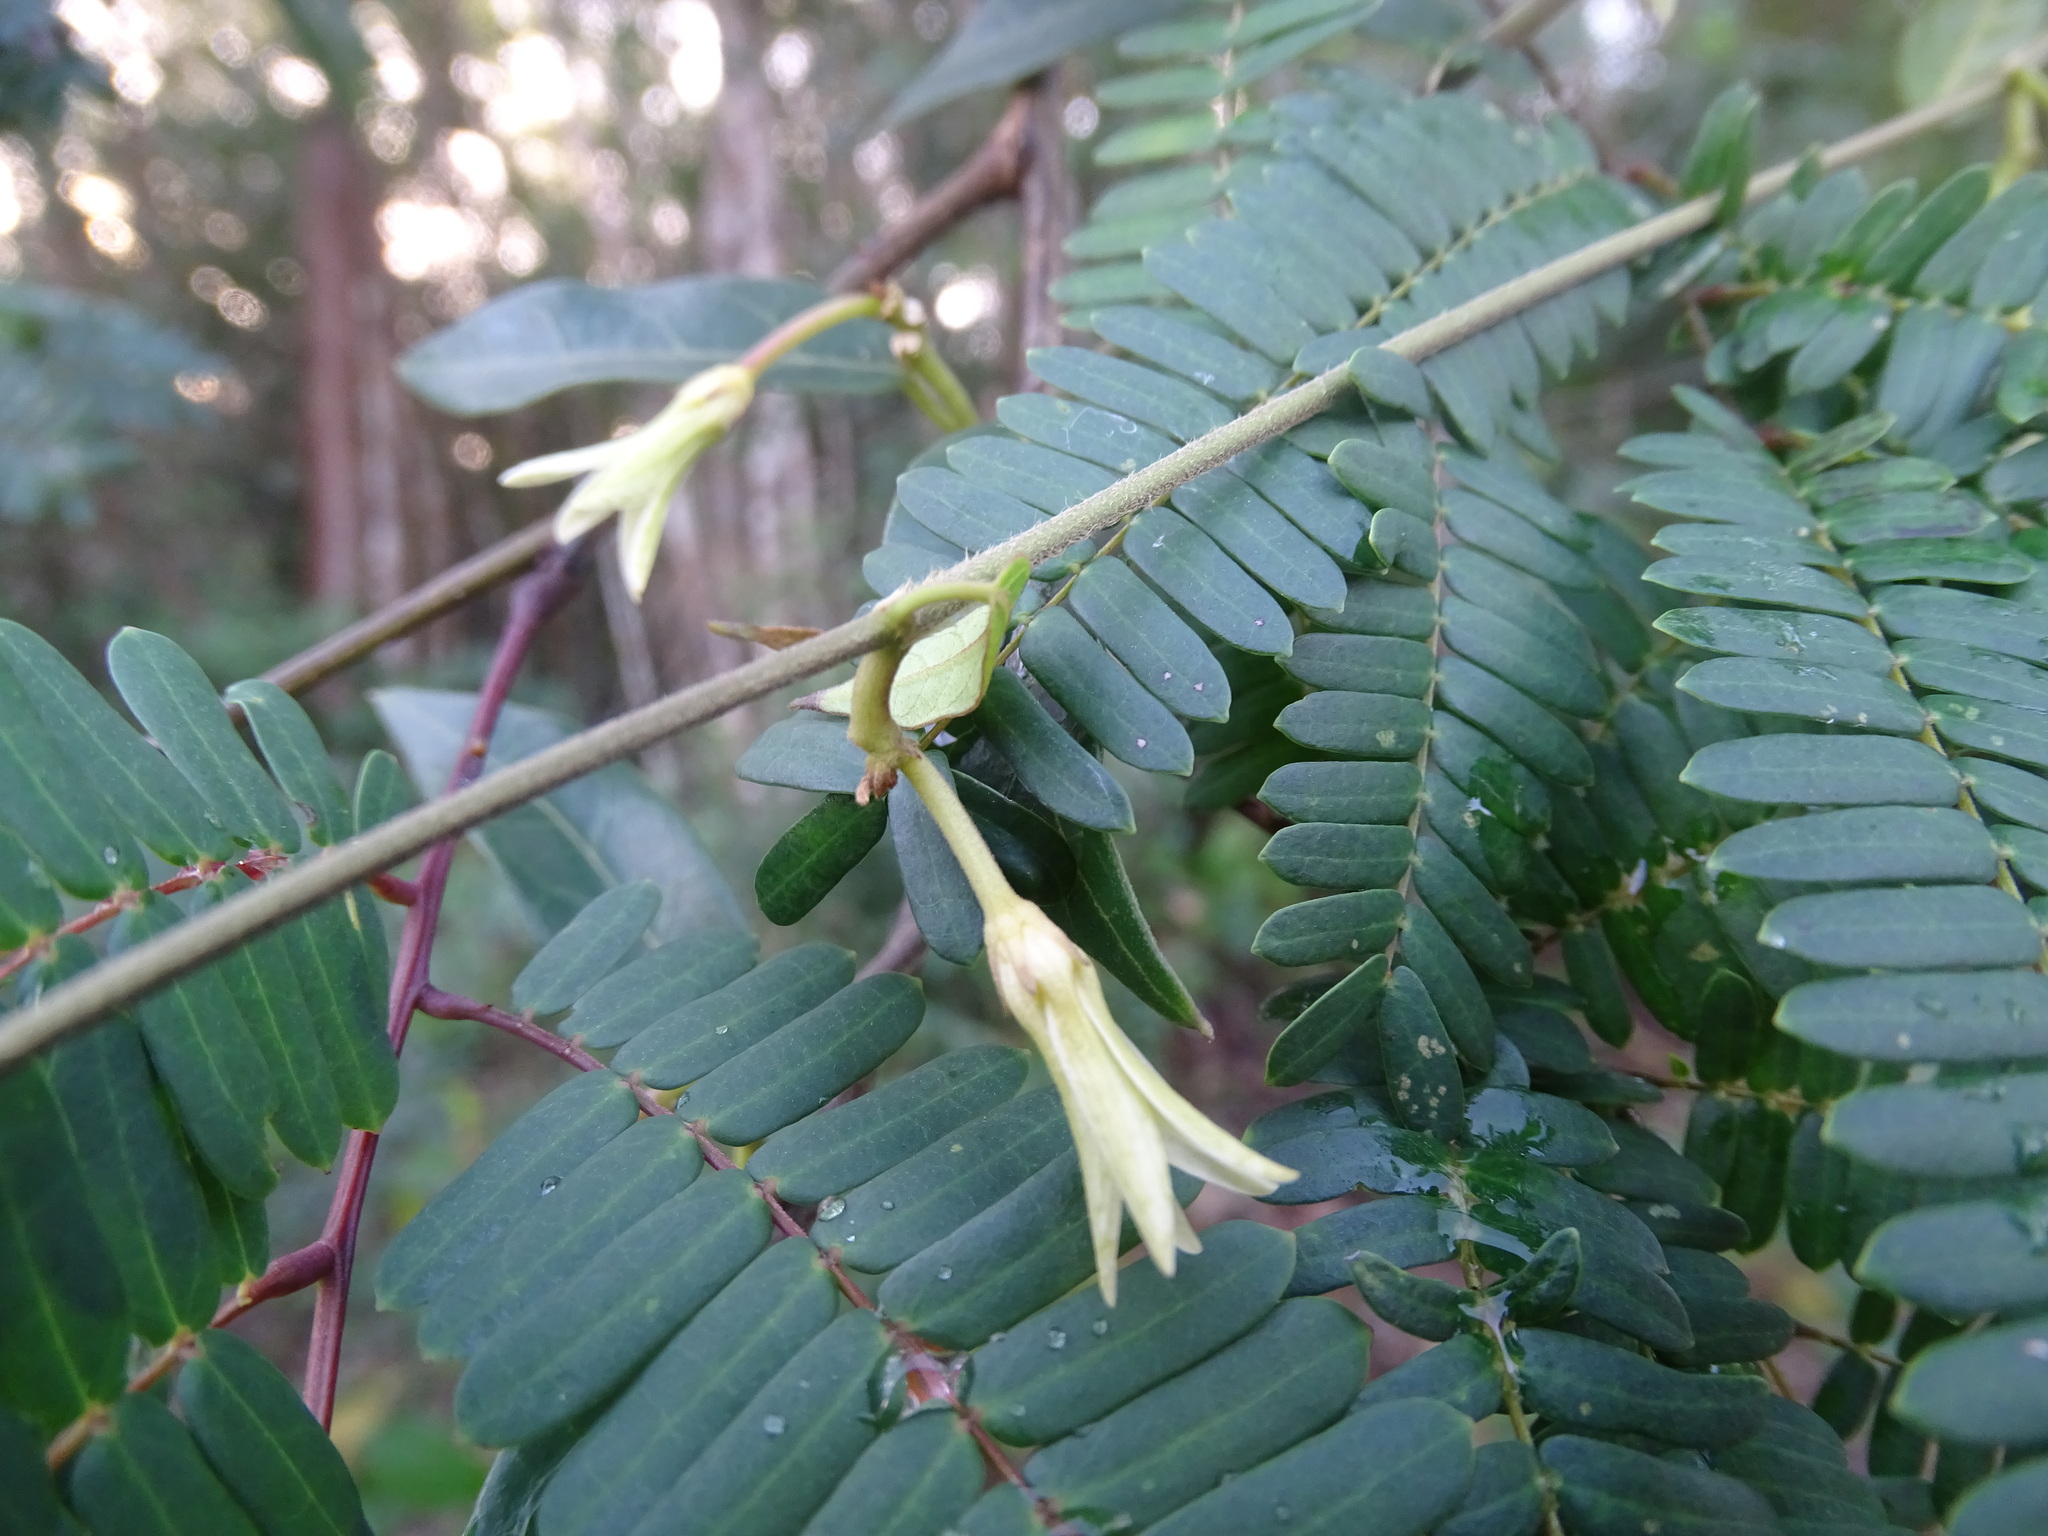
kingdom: Plantae
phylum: Tracheophyta
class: Magnoliopsida
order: Gentianales
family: Apocynaceae
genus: Matelea
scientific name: Matelea belizensis
